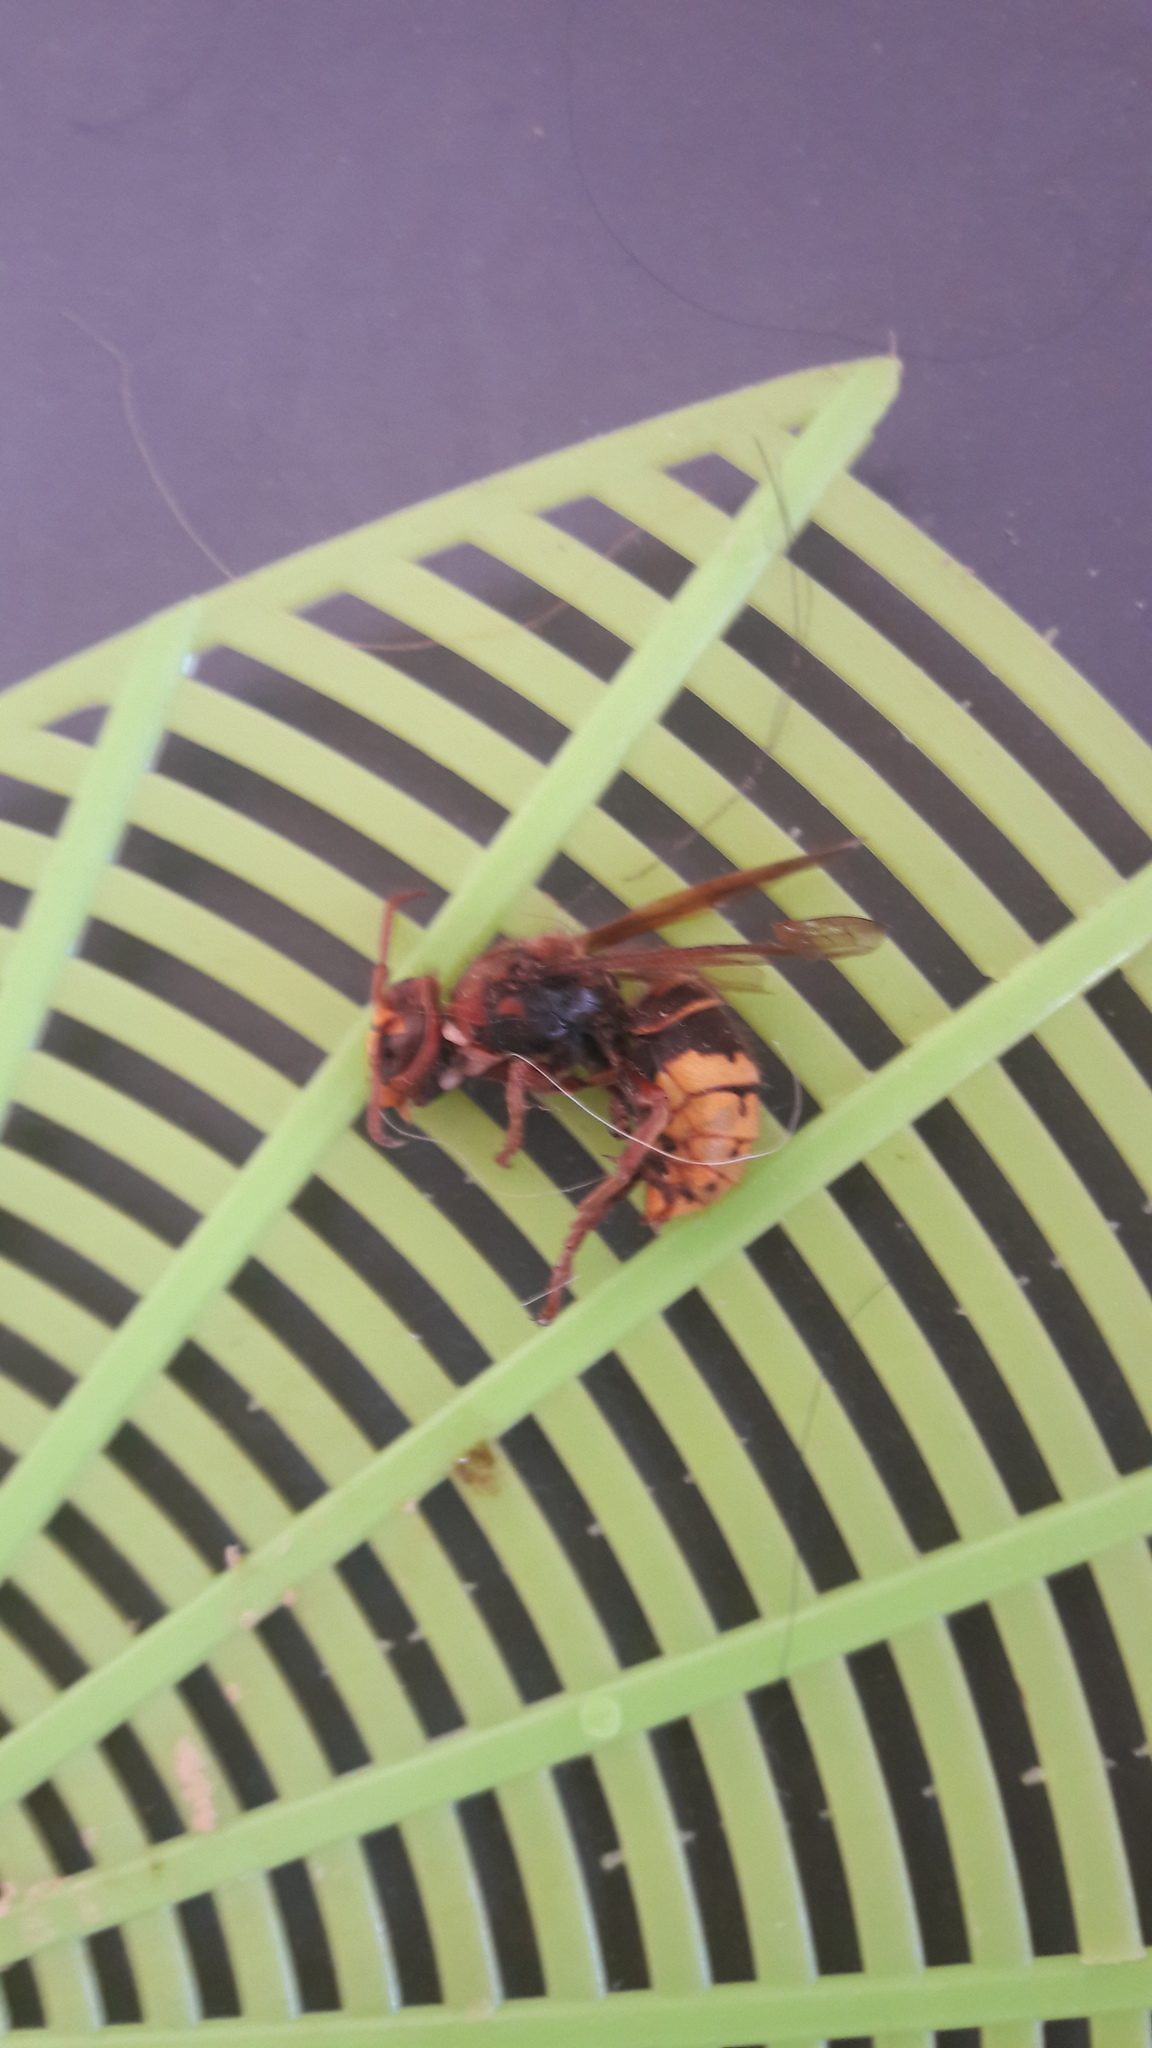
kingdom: Animalia
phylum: Arthropoda
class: Insecta
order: Hymenoptera
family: Vespidae
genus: Vespa
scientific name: Vespa crabro
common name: Hornet
